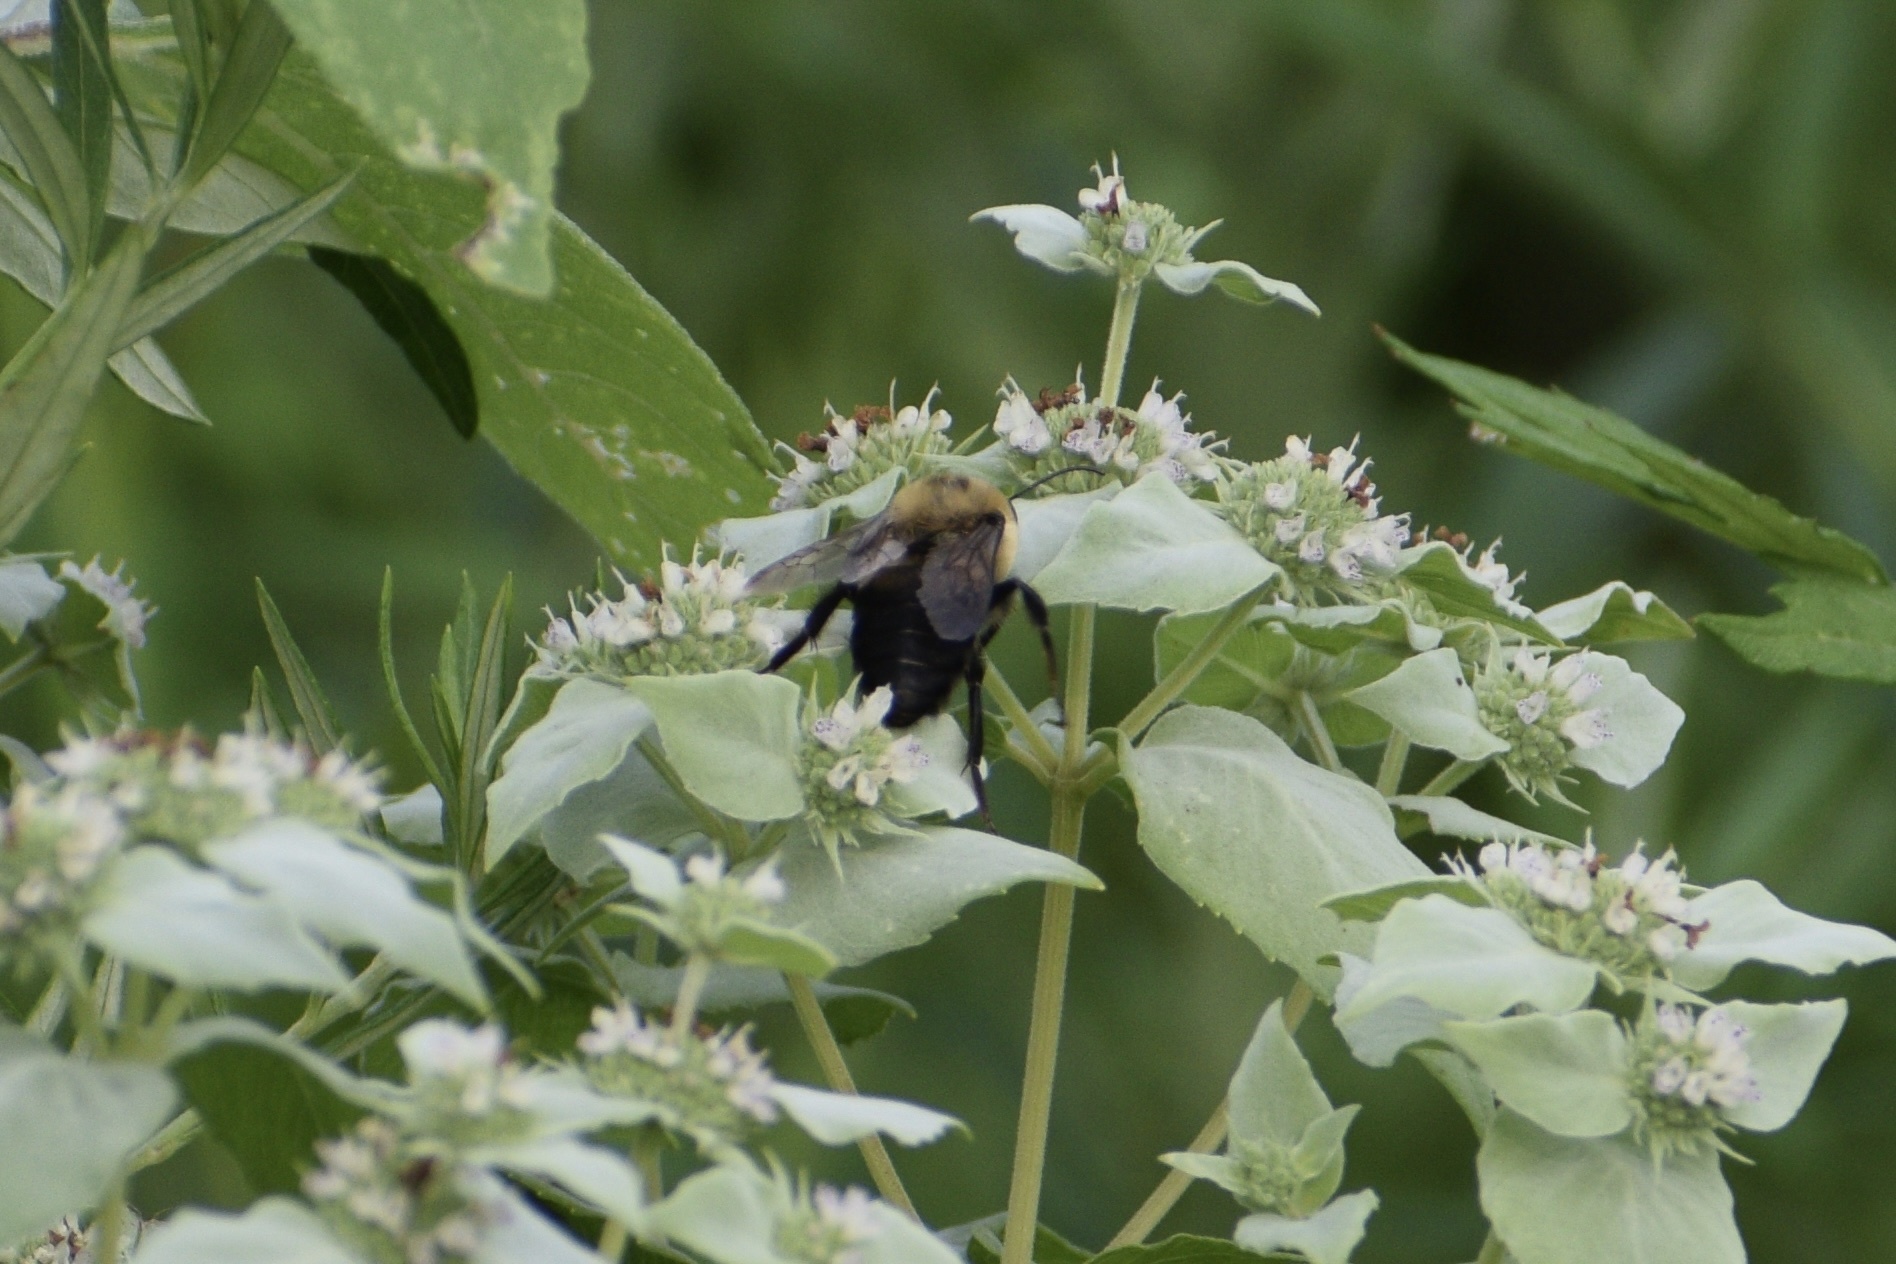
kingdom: Animalia
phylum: Arthropoda
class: Insecta
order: Hymenoptera
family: Apidae
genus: Bombus
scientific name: Bombus griseocollis
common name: Brown-belted bumble bee
